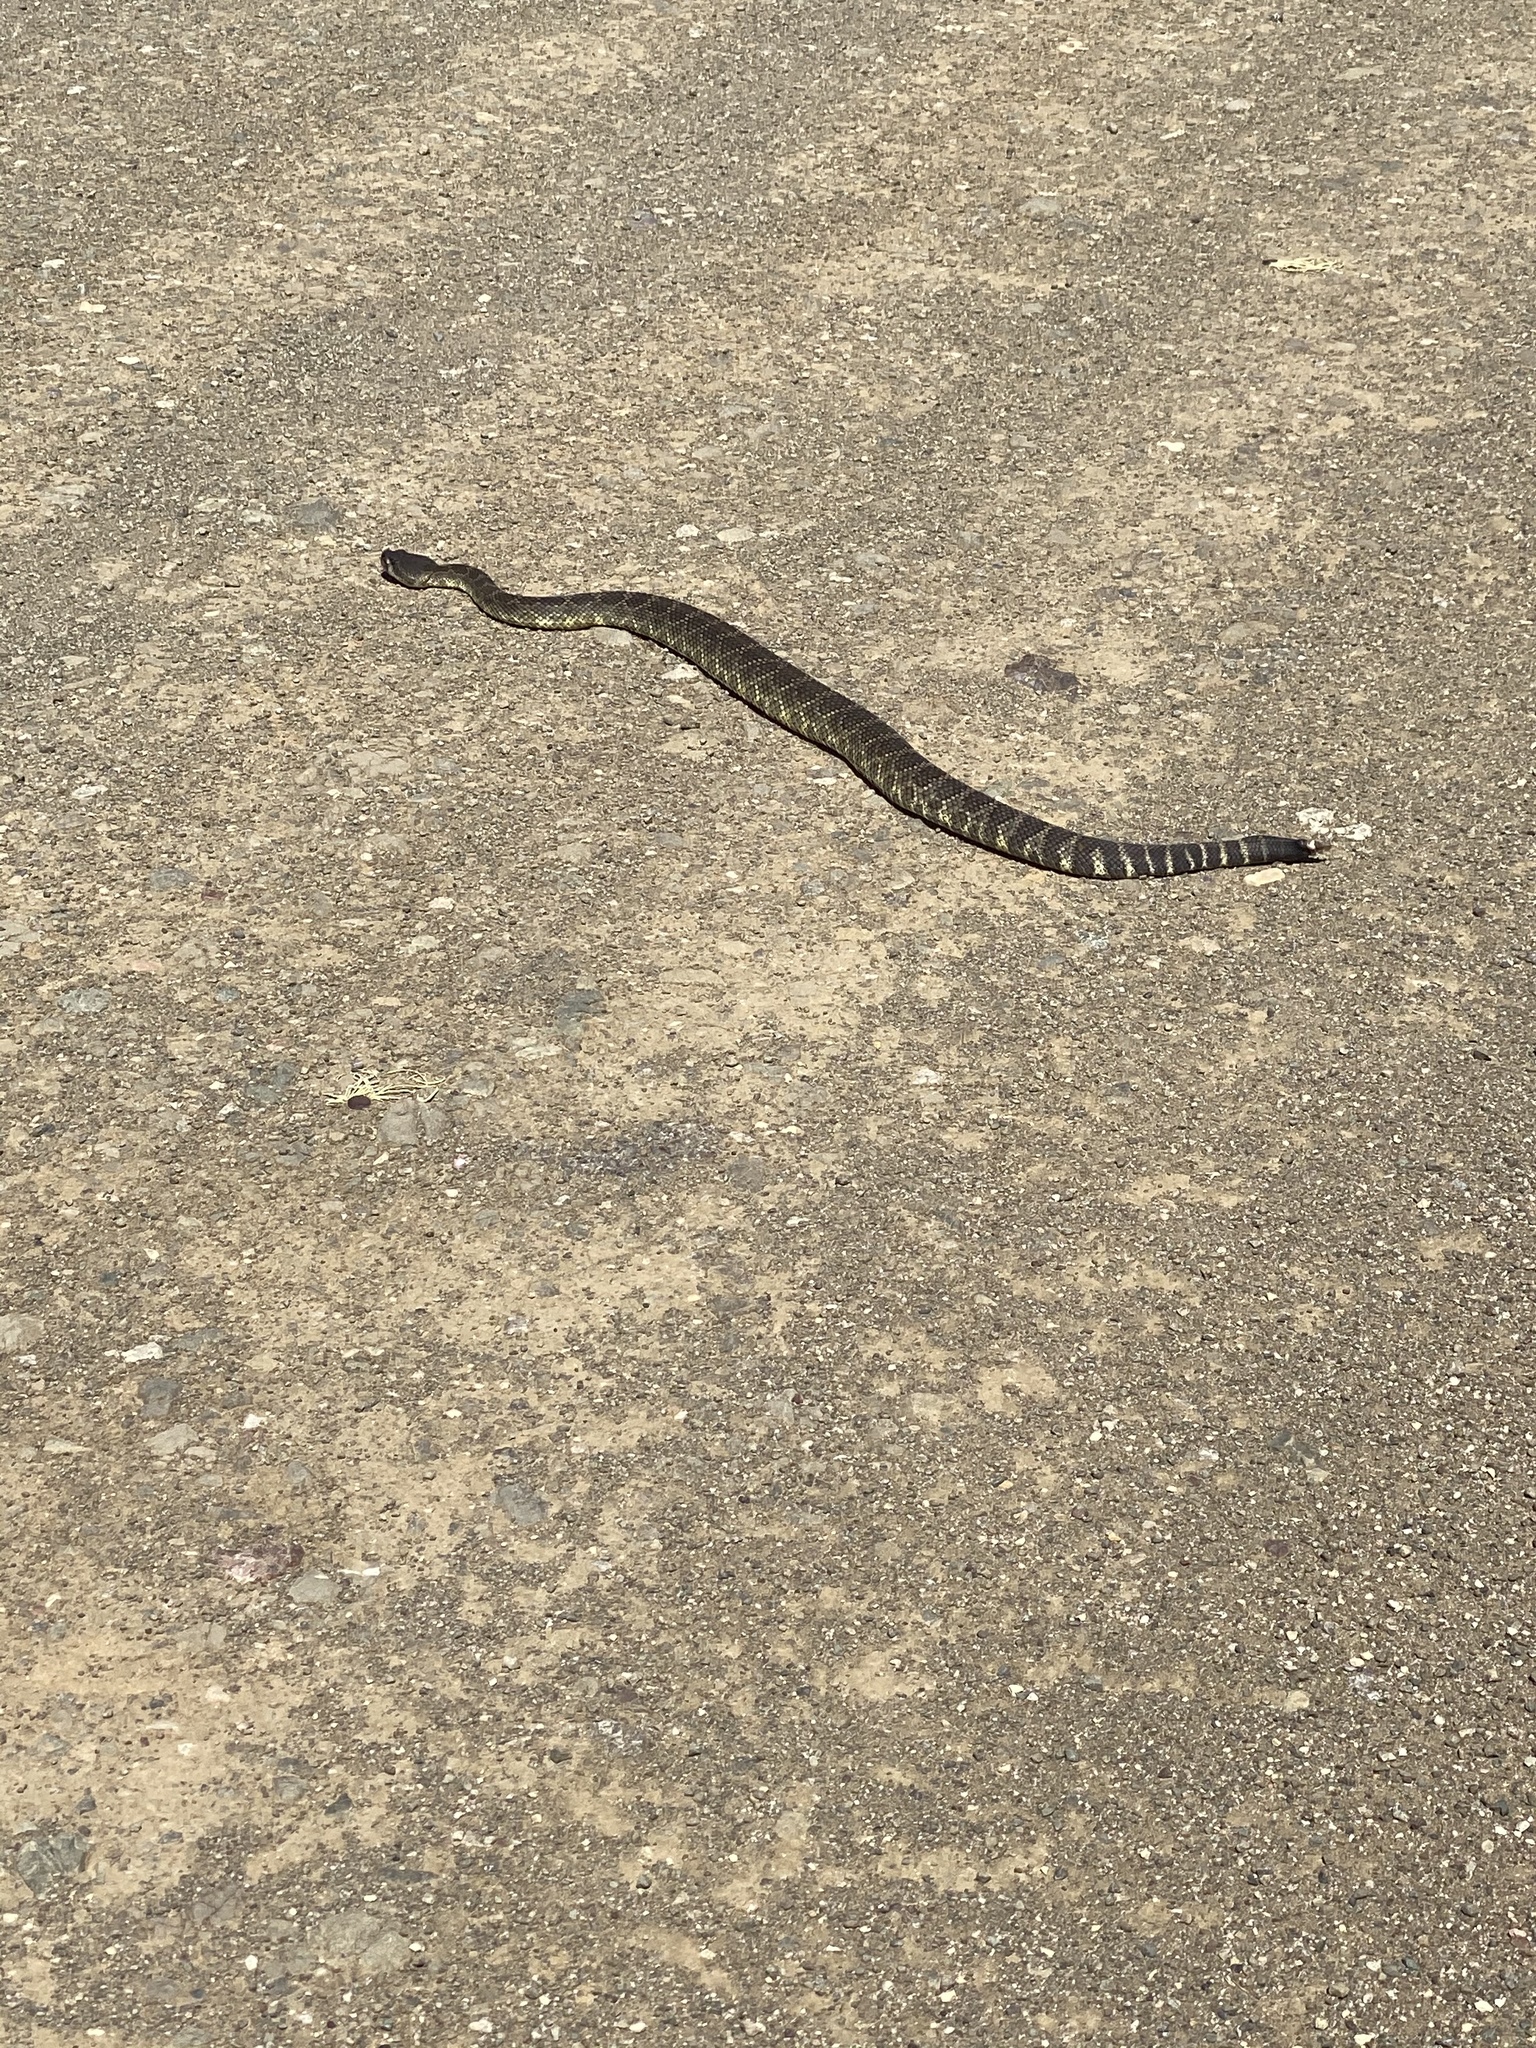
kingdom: Animalia
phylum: Chordata
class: Squamata
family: Viperidae
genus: Crotalus
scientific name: Crotalus oreganus
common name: Abyssus
